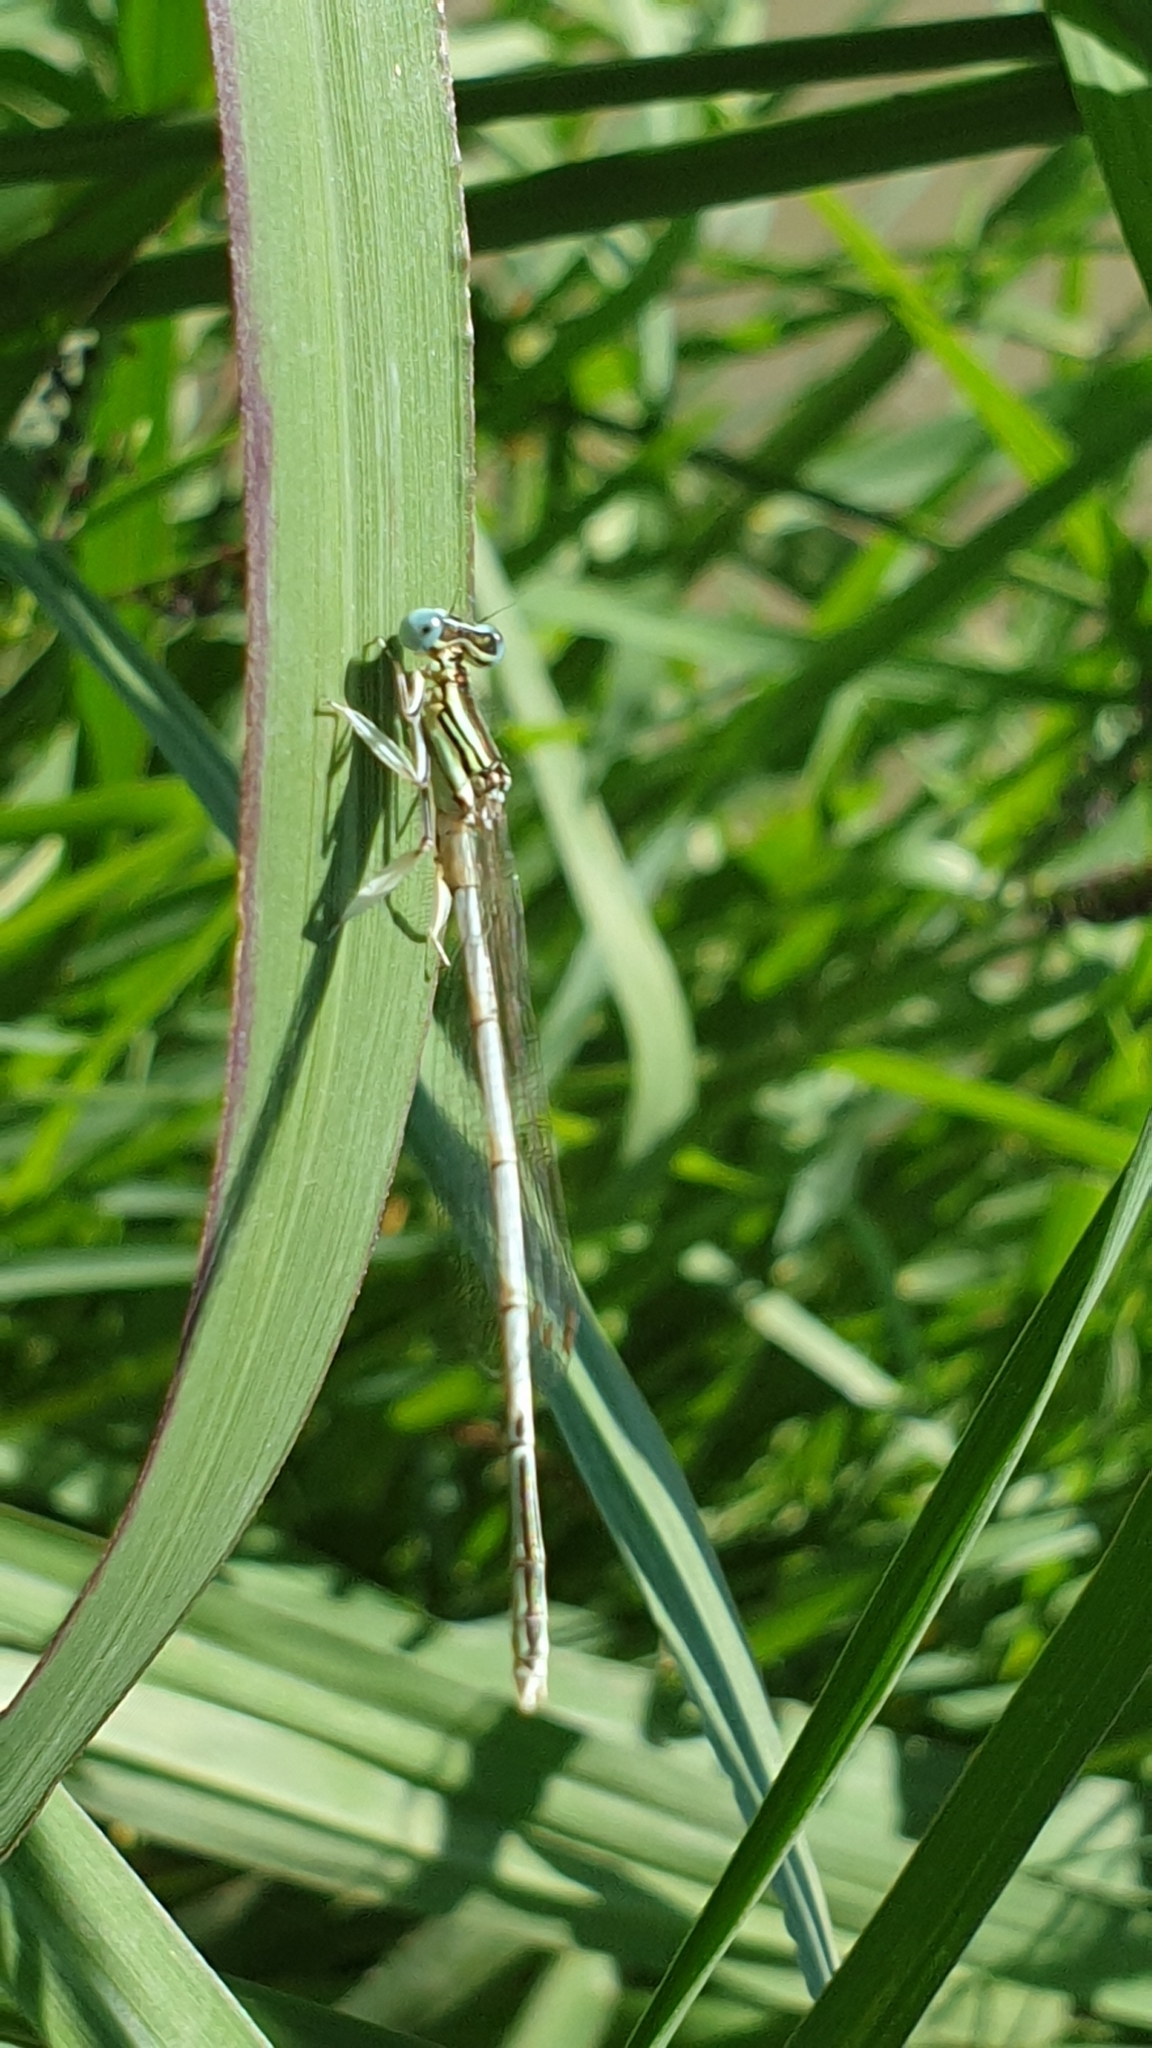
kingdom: Animalia
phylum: Arthropoda
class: Insecta
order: Odonata
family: Platycnemididae
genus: Platycnemis
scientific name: Platycnemis latipes
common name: White featherleg
